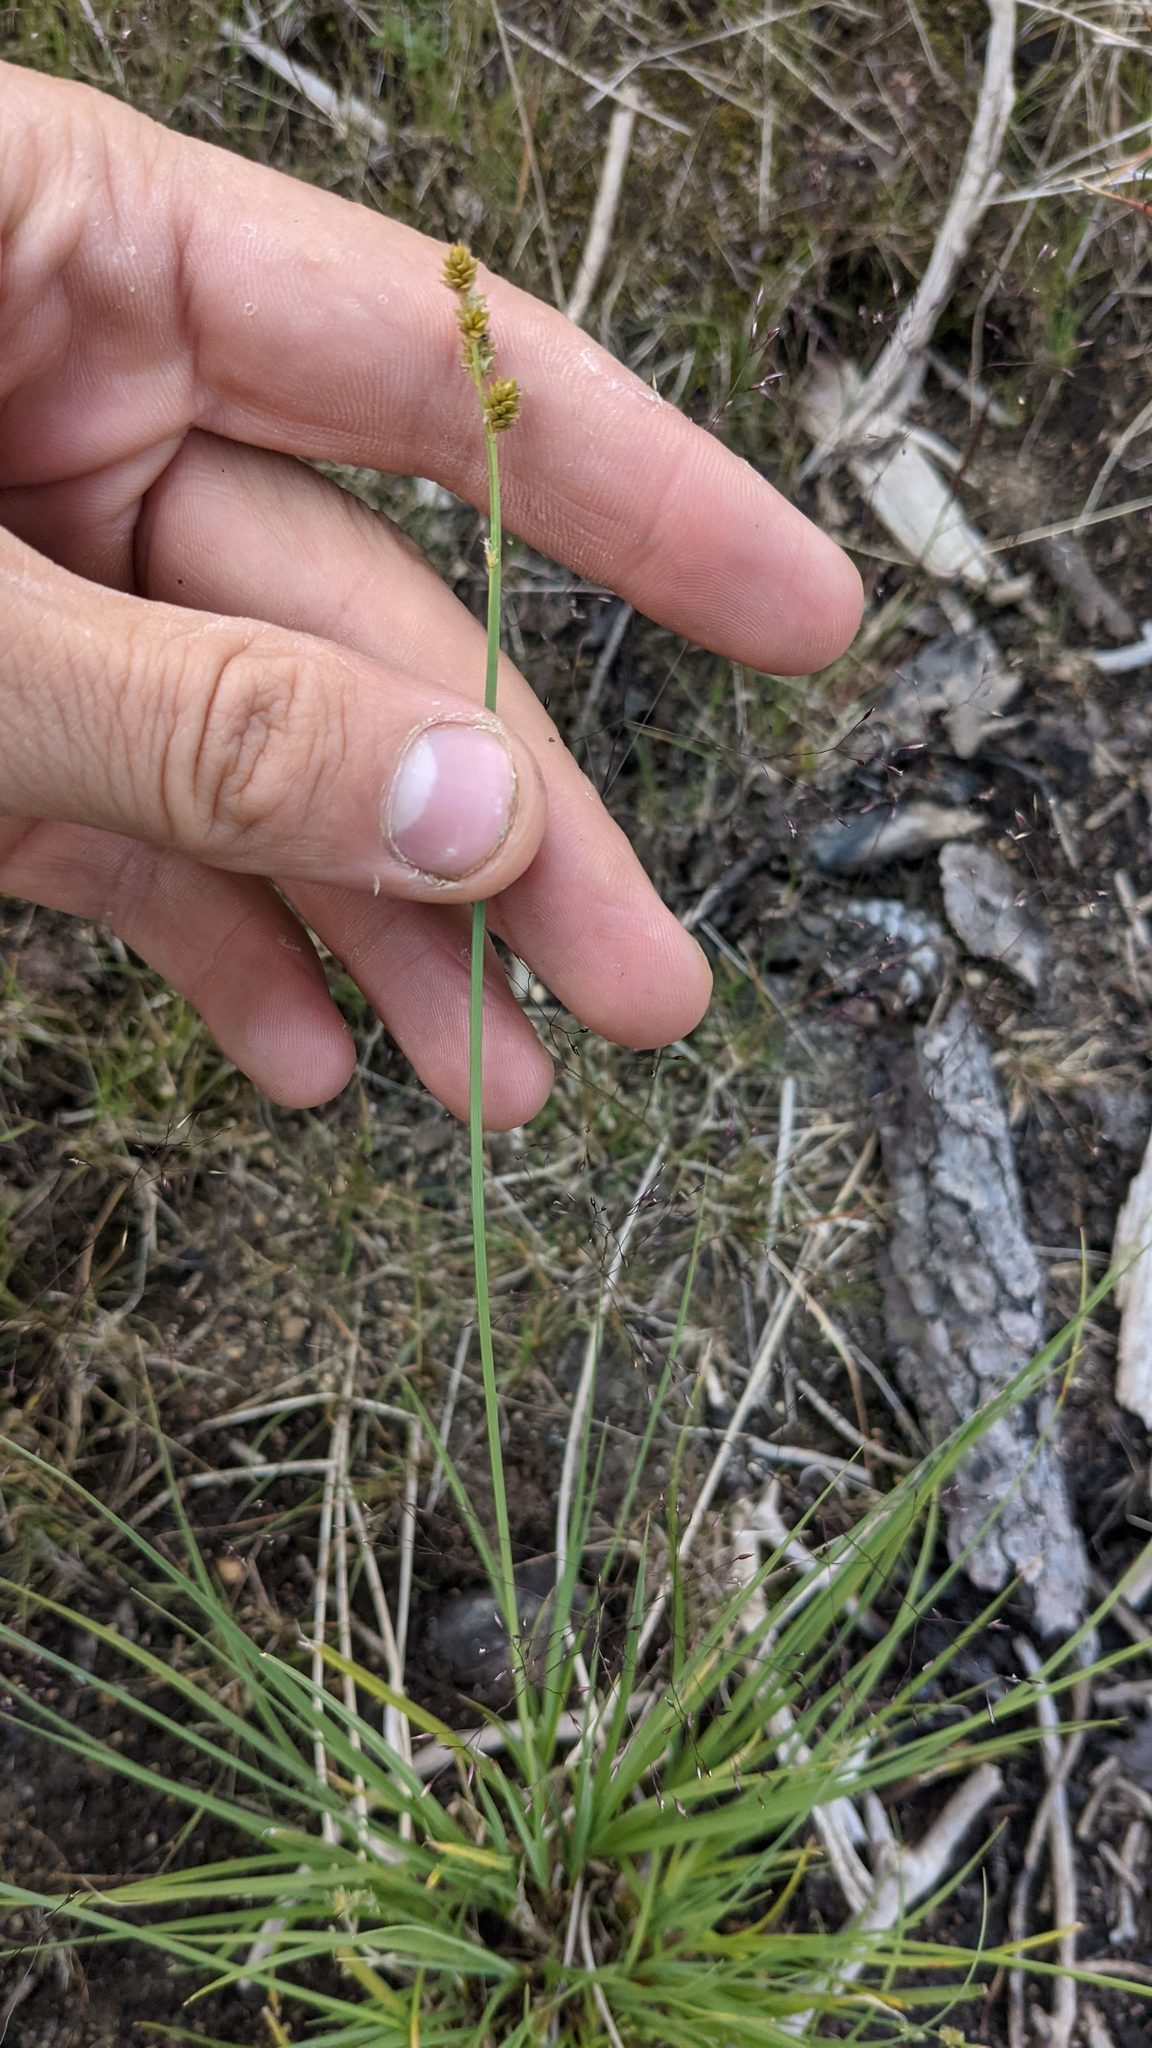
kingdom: Plantae
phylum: Tracheophyta
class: Liliopsida
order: Poales
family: Cyperaceae
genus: Carex
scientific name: Carex canescens
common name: White sedge
